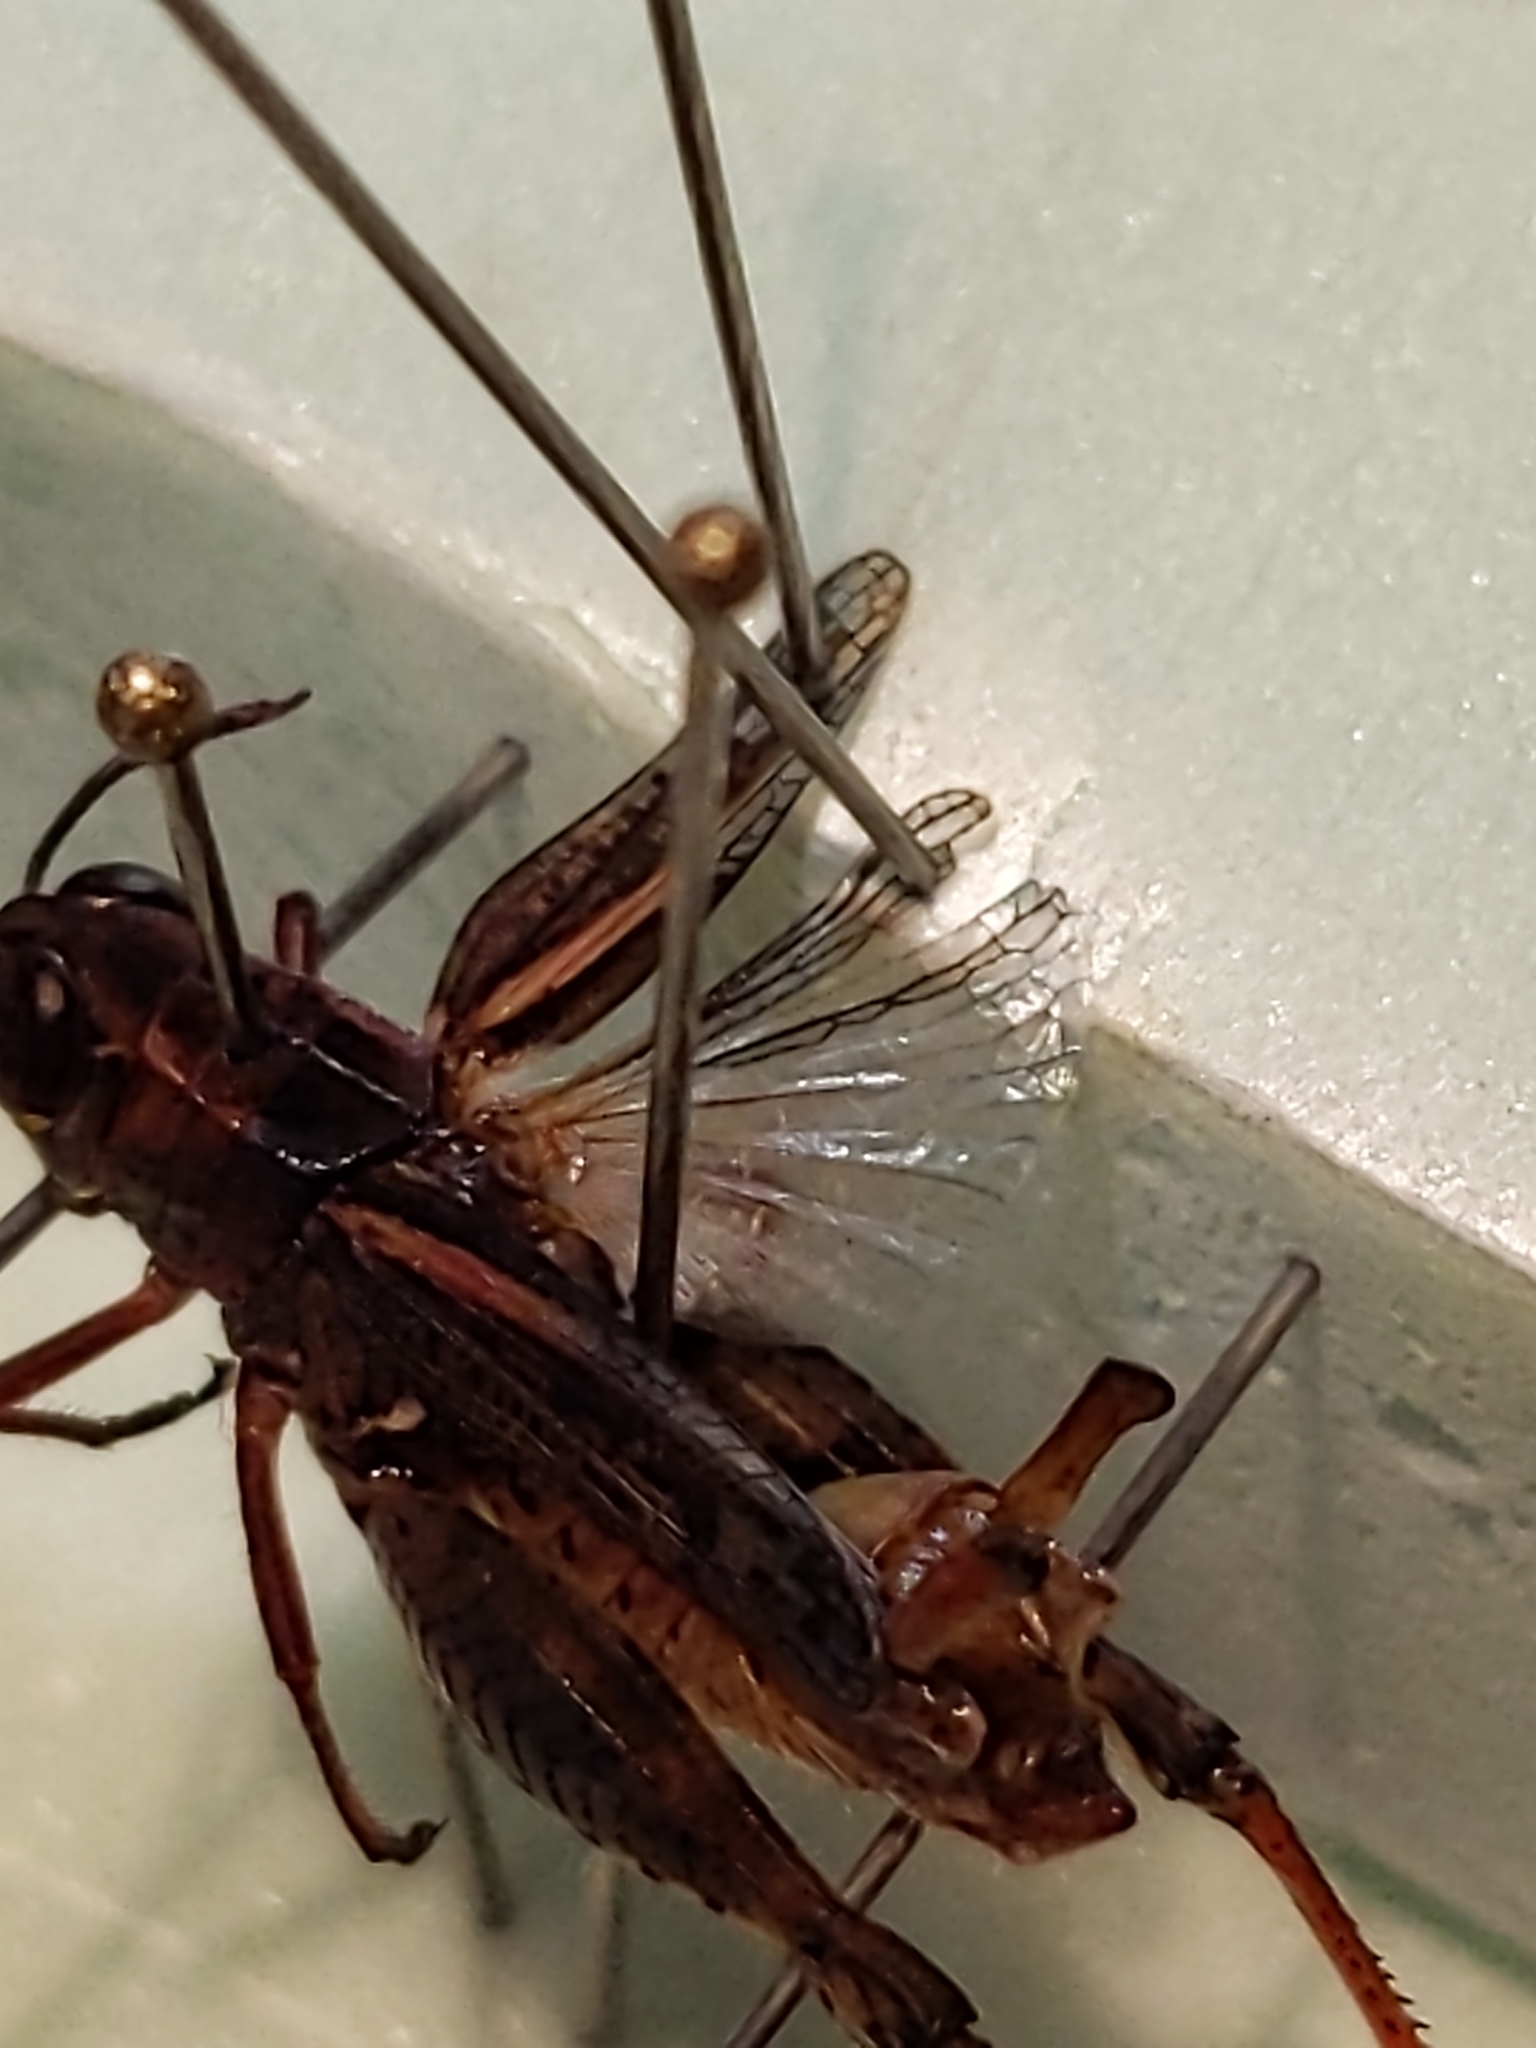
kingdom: Animalia
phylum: Arthropoda
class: Insecta
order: Orthoptera
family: Acrididae
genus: Calliptamus
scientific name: Calliptamus siciliae
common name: Pygmy pincer grasshopper
